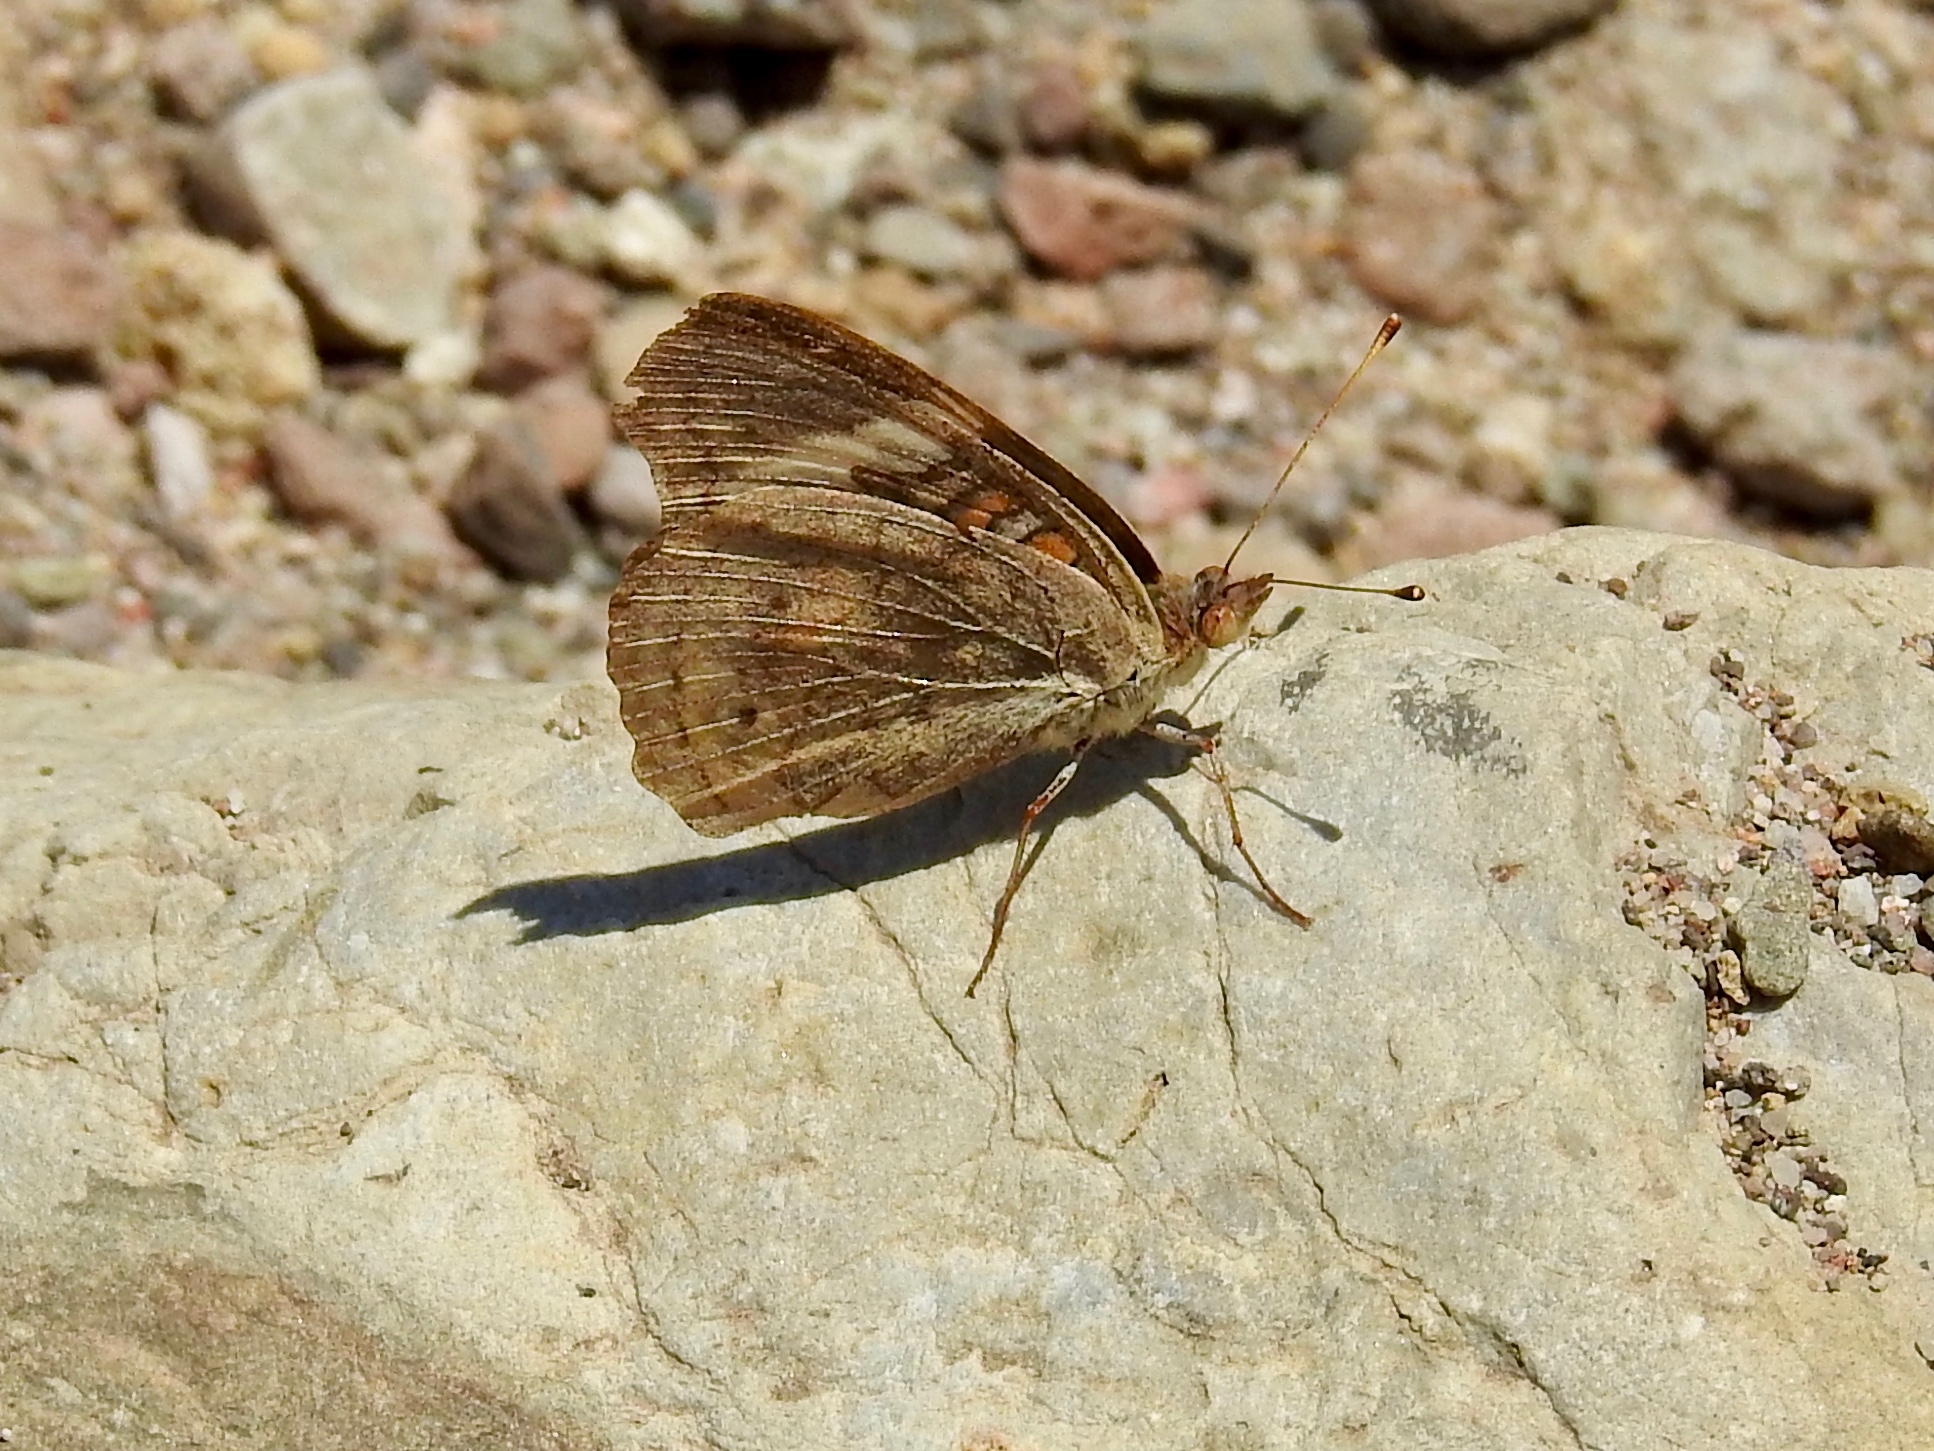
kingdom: Animalia
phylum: Arthropoda
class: Insecta
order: Lepidoptera
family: Nymphalidae
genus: Junonia
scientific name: Junonia grisea
